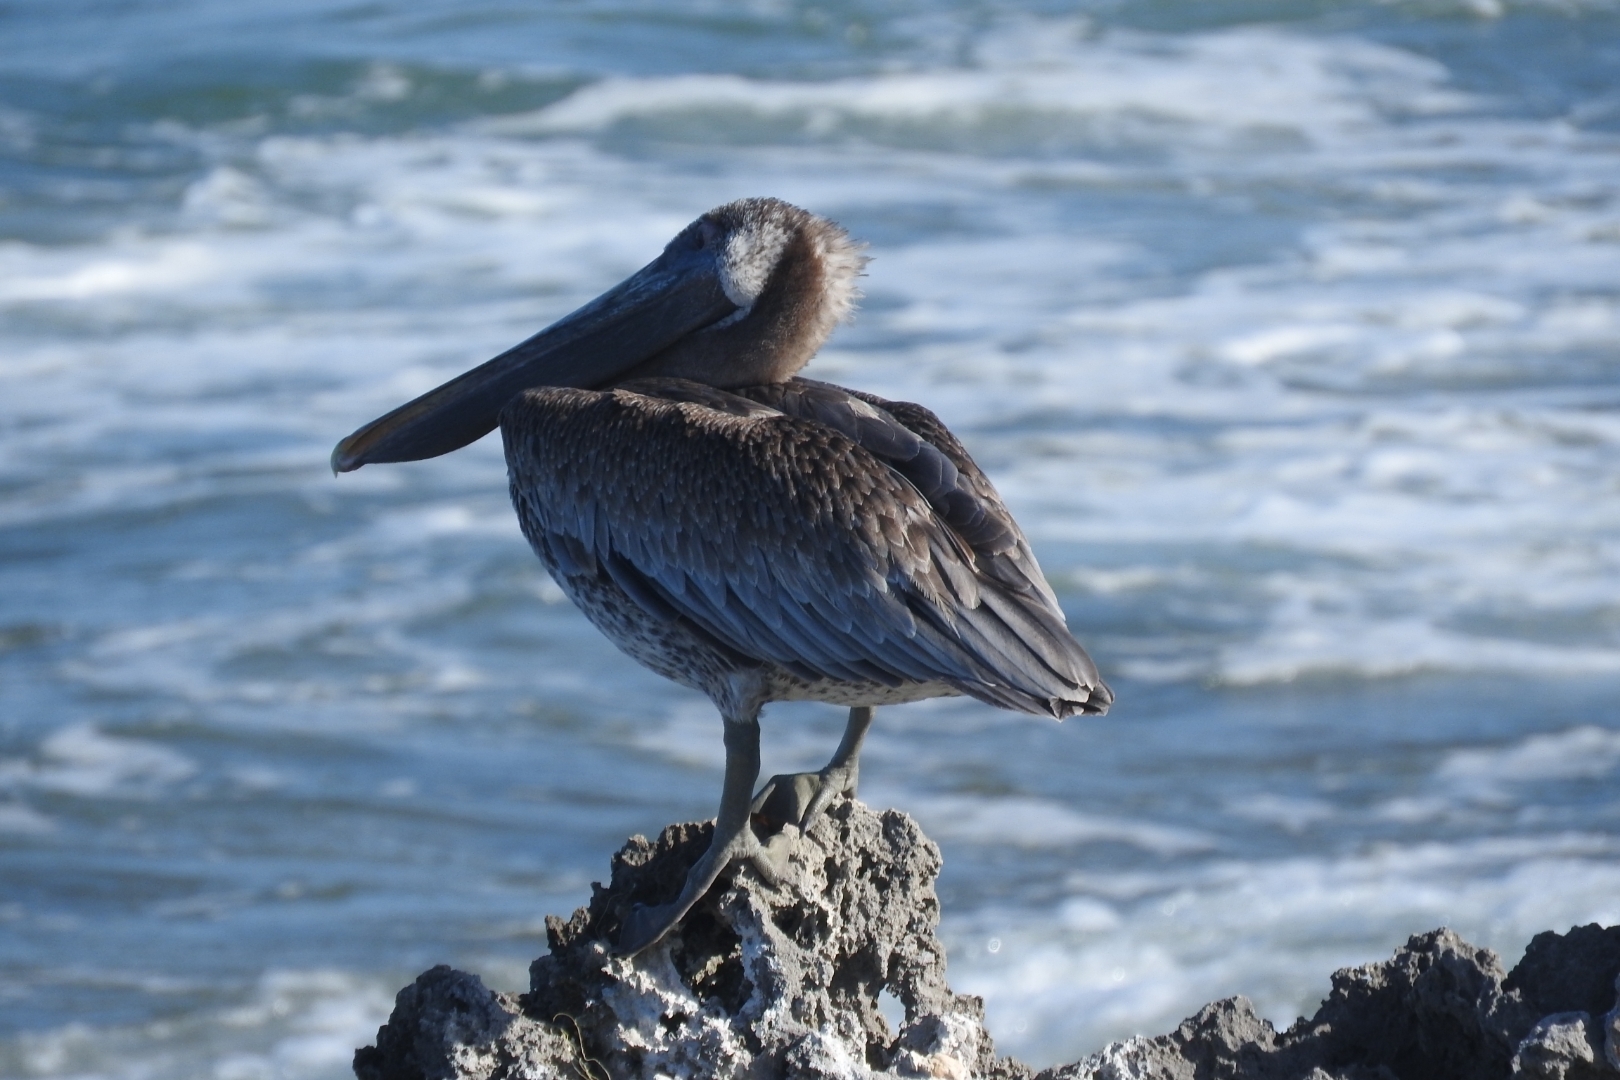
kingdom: Animalia
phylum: Chordata
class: Aves
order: Pelecaniformes
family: Pelecanidae
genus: Pelecanus
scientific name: Pelecanus occidentalis
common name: Brown pelican
